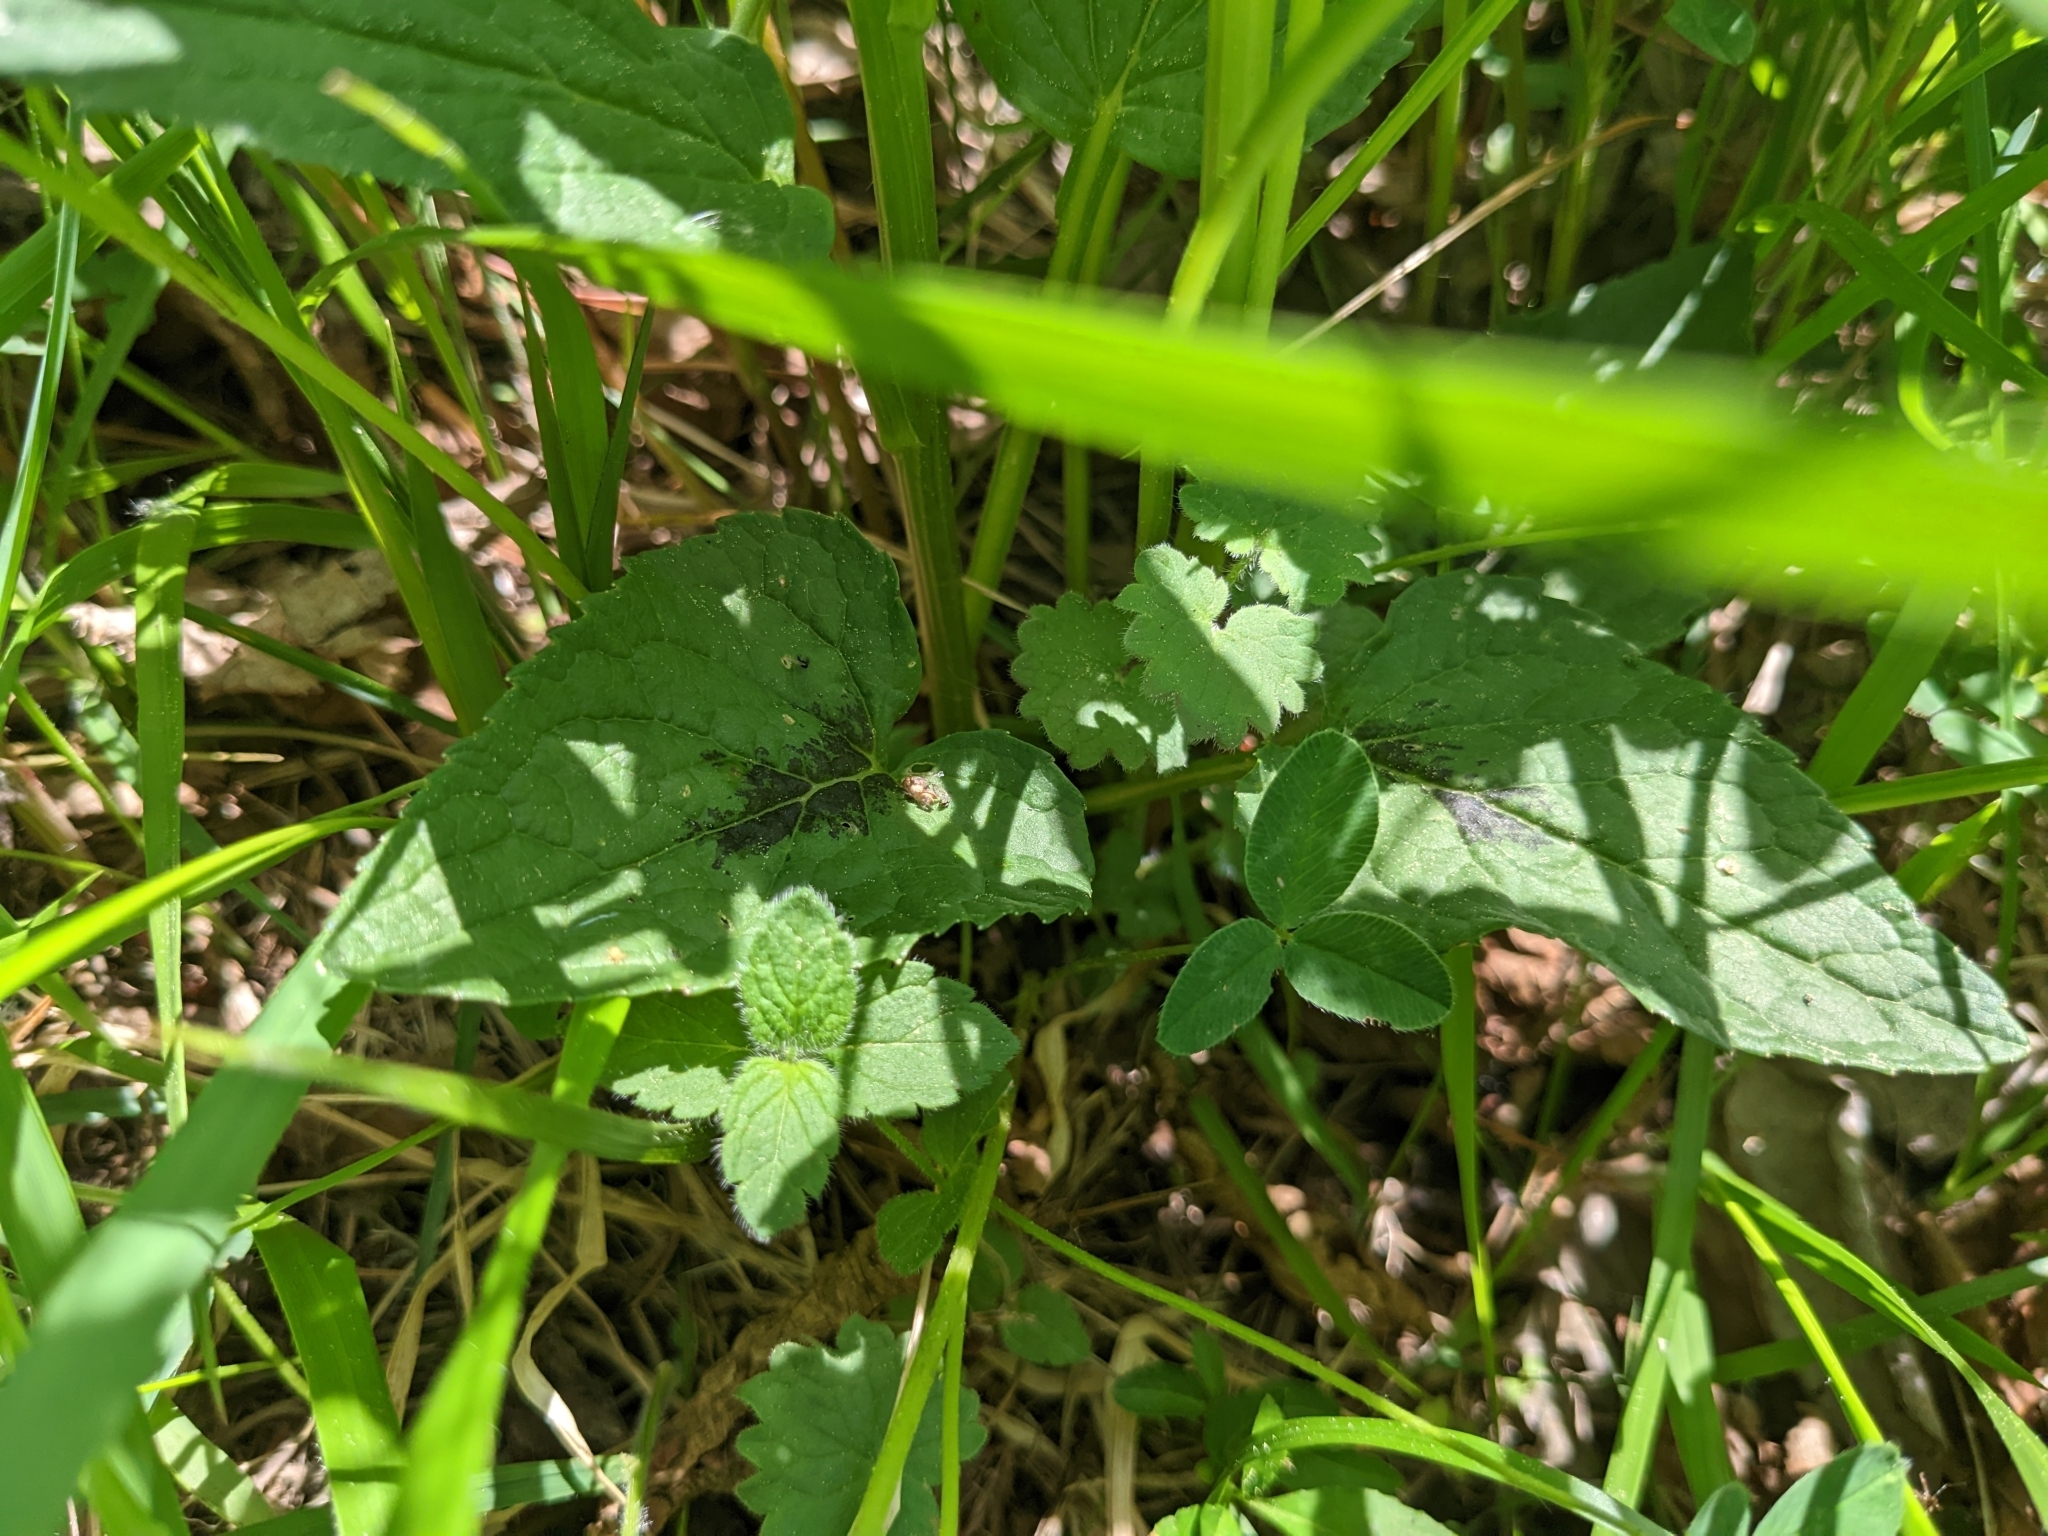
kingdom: Plantae
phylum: Tracheophyta
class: Magnoliopsida
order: Asterales
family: Campanulaceae
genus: Phyteuma
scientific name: Phyteuma spicatum
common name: Spiked rampion
